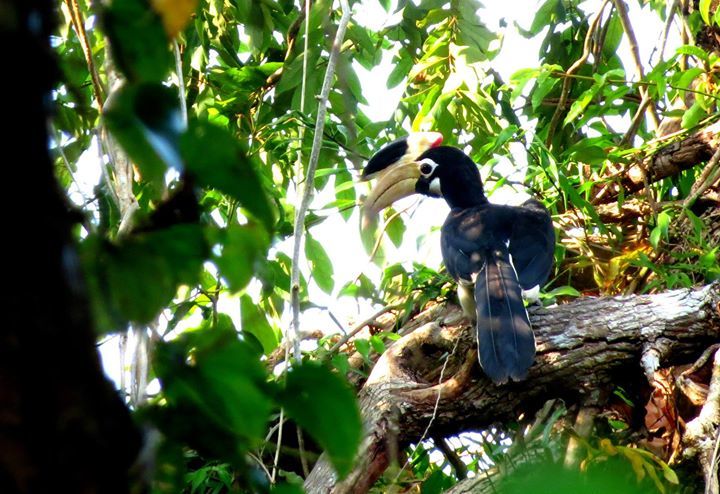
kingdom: Animalia
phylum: Chordata
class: Aves
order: Bucerotiformes
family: Bucerotidae
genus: Anthracoceros
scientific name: Anthracoceros coronatus
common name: Malabar pied hornbill
